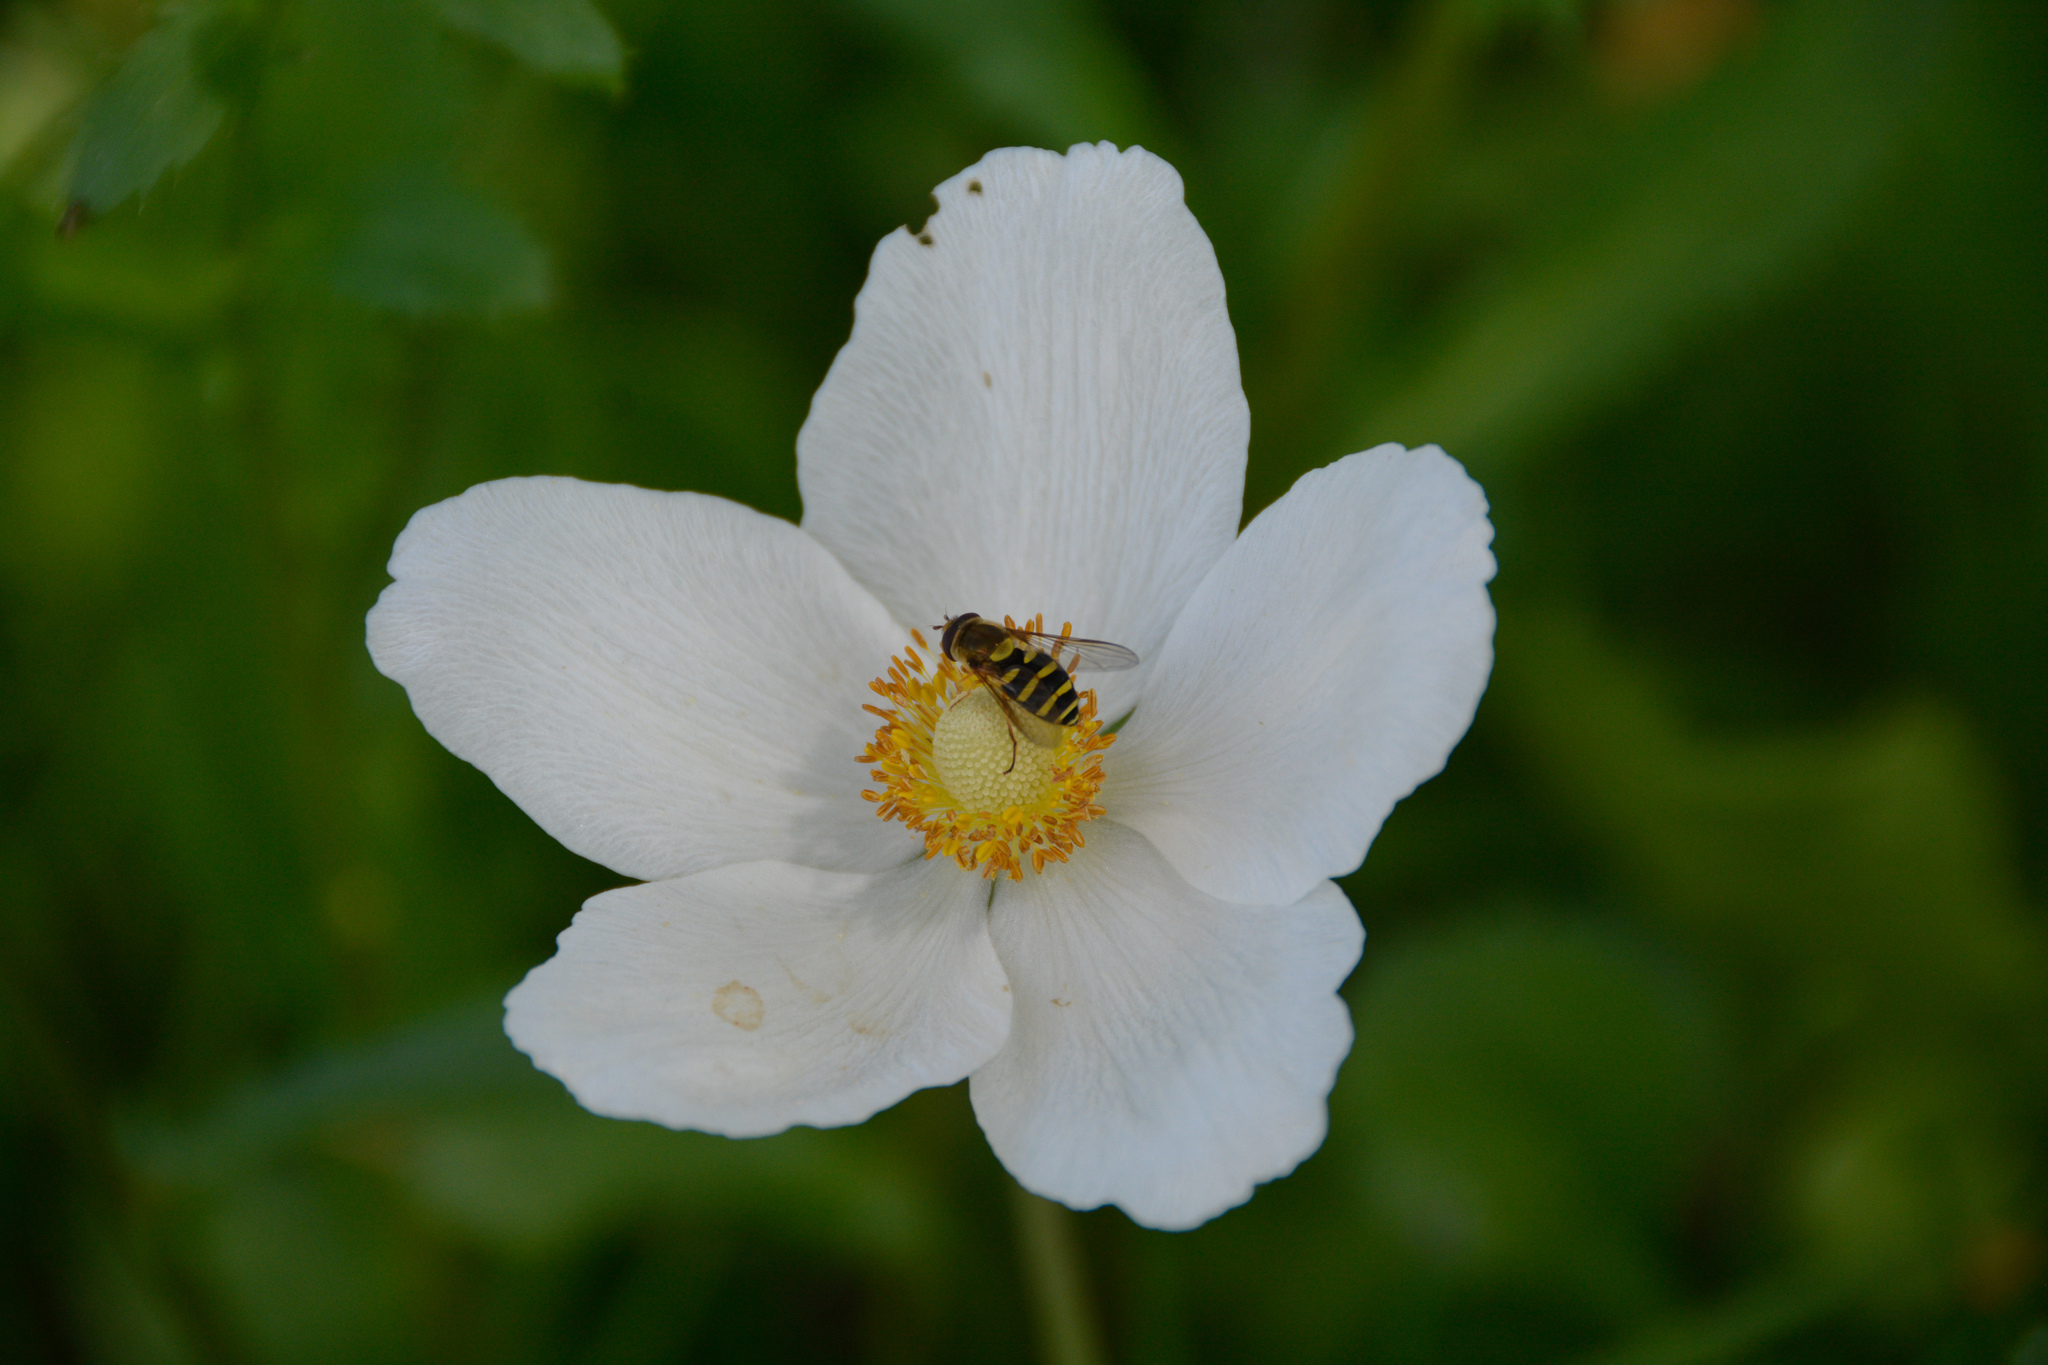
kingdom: Animalia
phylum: Arthropoda
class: Insecta
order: Diptera
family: Syrphidae
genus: Syrphus
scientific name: Syrphus opinator
